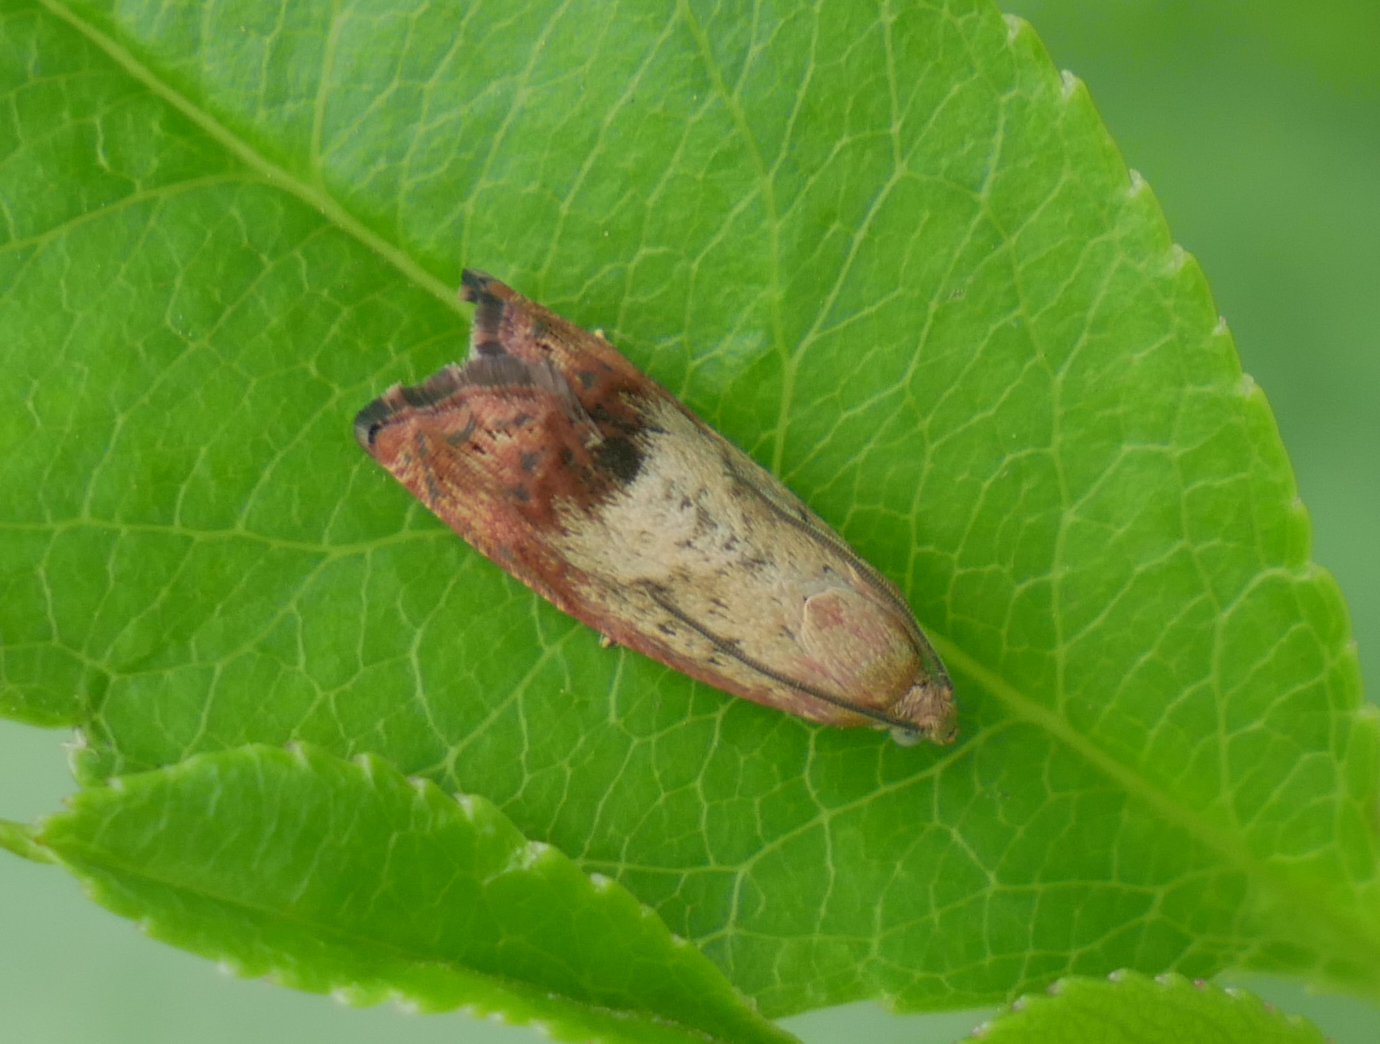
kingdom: Animalia
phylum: Arthropoda
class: Insecta
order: Lepidoptera
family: Tortricidae
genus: Cydia
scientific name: Cydia amplana
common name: Vagrant piercer
